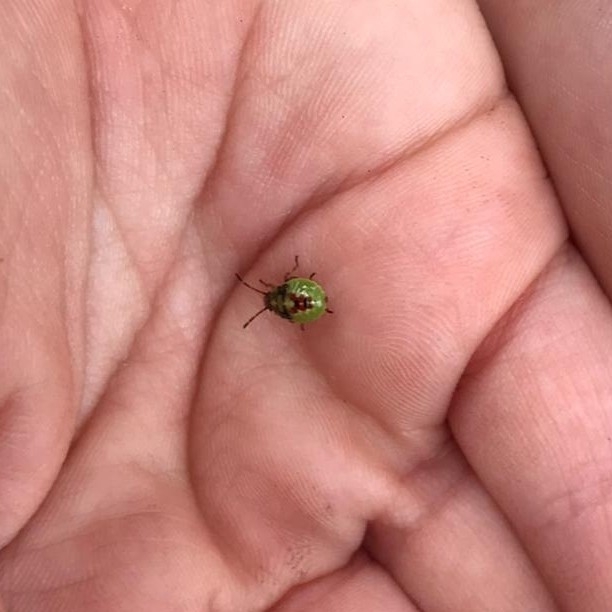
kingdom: Animalia
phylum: Arthropoda
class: Insecta
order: Hemiptera
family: Acanthosomatidae
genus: Elasmostethus
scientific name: Elasmostethus interstinctus
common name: Birch shieldbug
